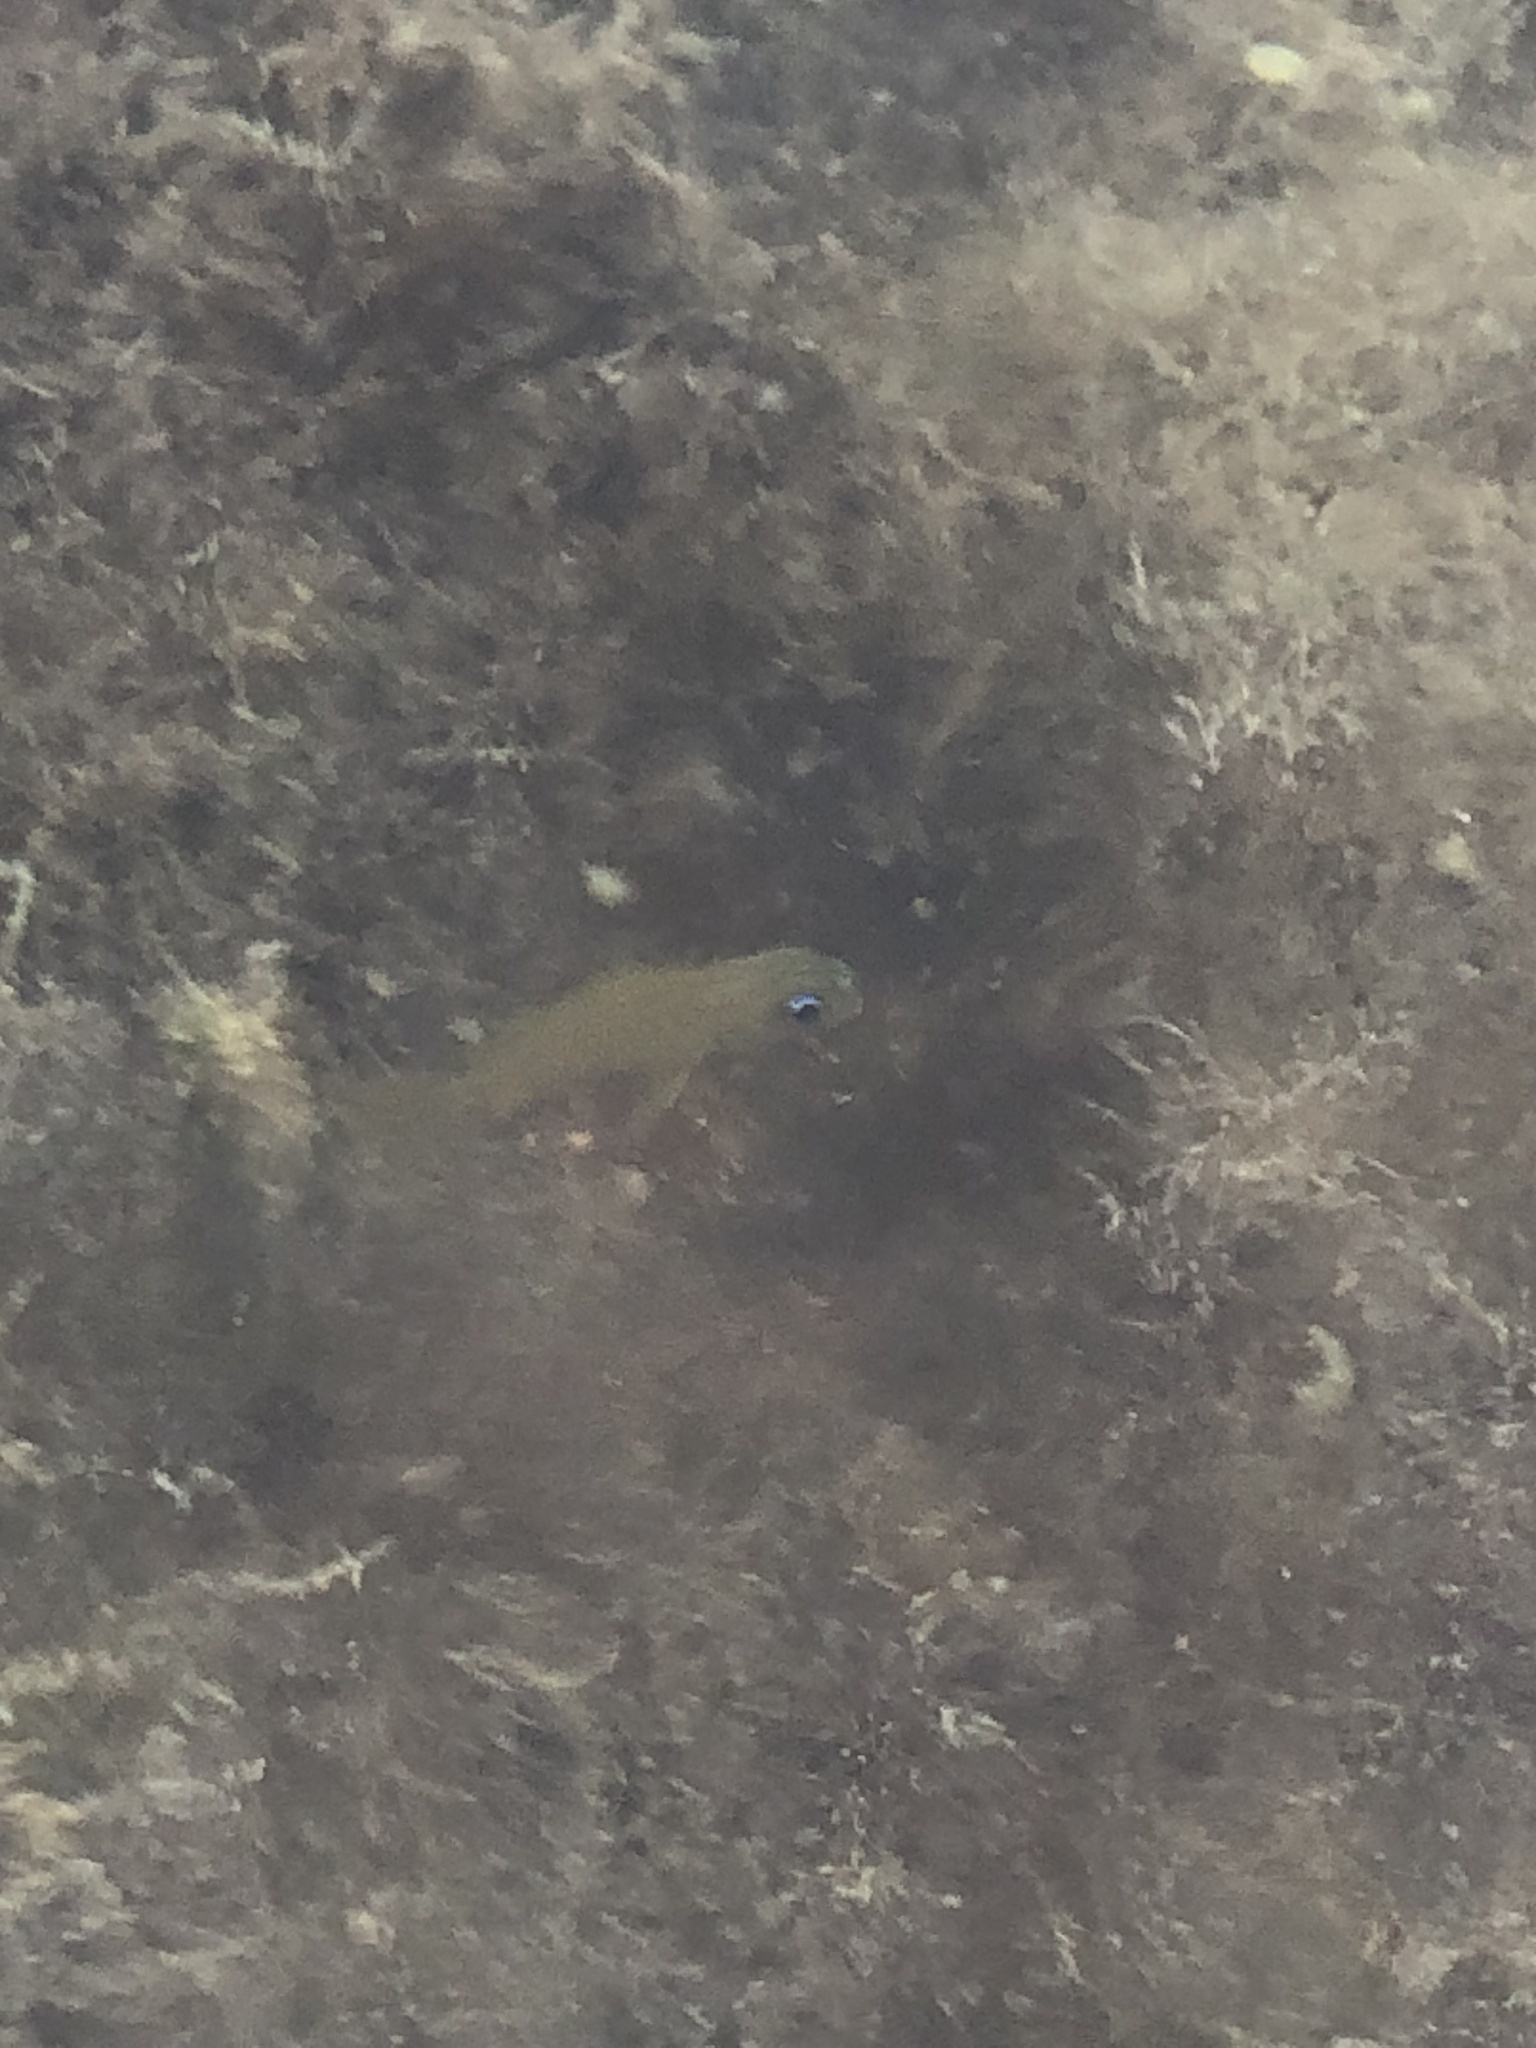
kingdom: Animalia
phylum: Chordata
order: Perciformes
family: Haemulidae
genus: Haemulon
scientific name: Haemulon flavolineatum
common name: French grunt
